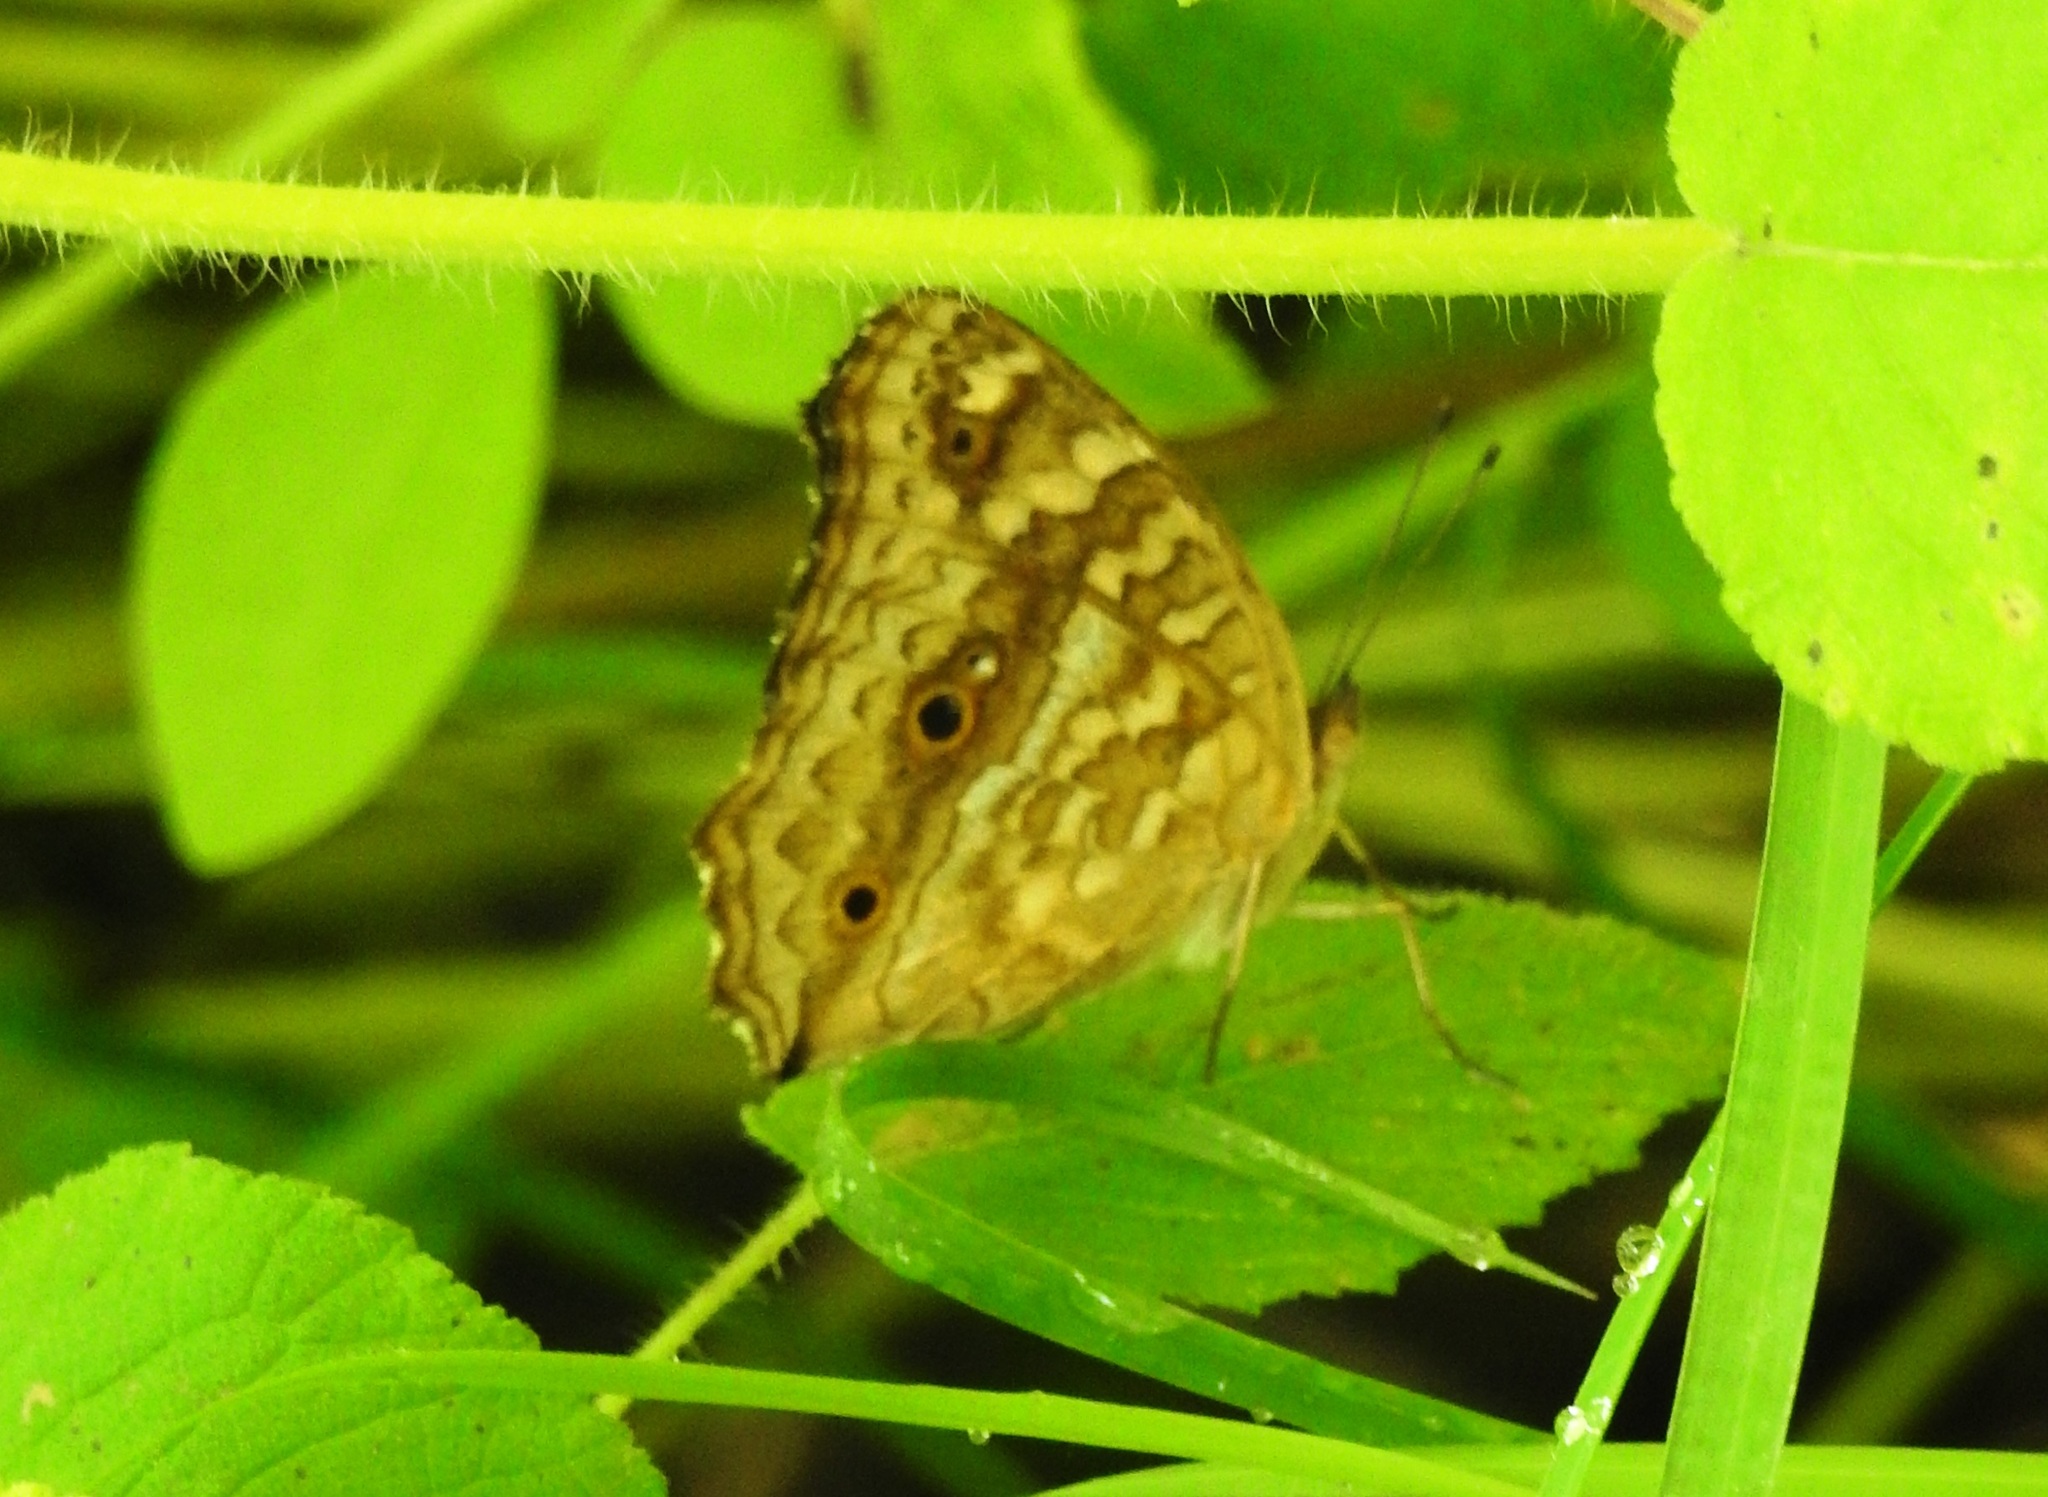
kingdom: Animalia
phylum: Arthropoda
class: Insecta
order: Lepidoptera
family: Nymphalidae
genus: Junonia
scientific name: Junonia lemonias
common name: Lemon pansy
